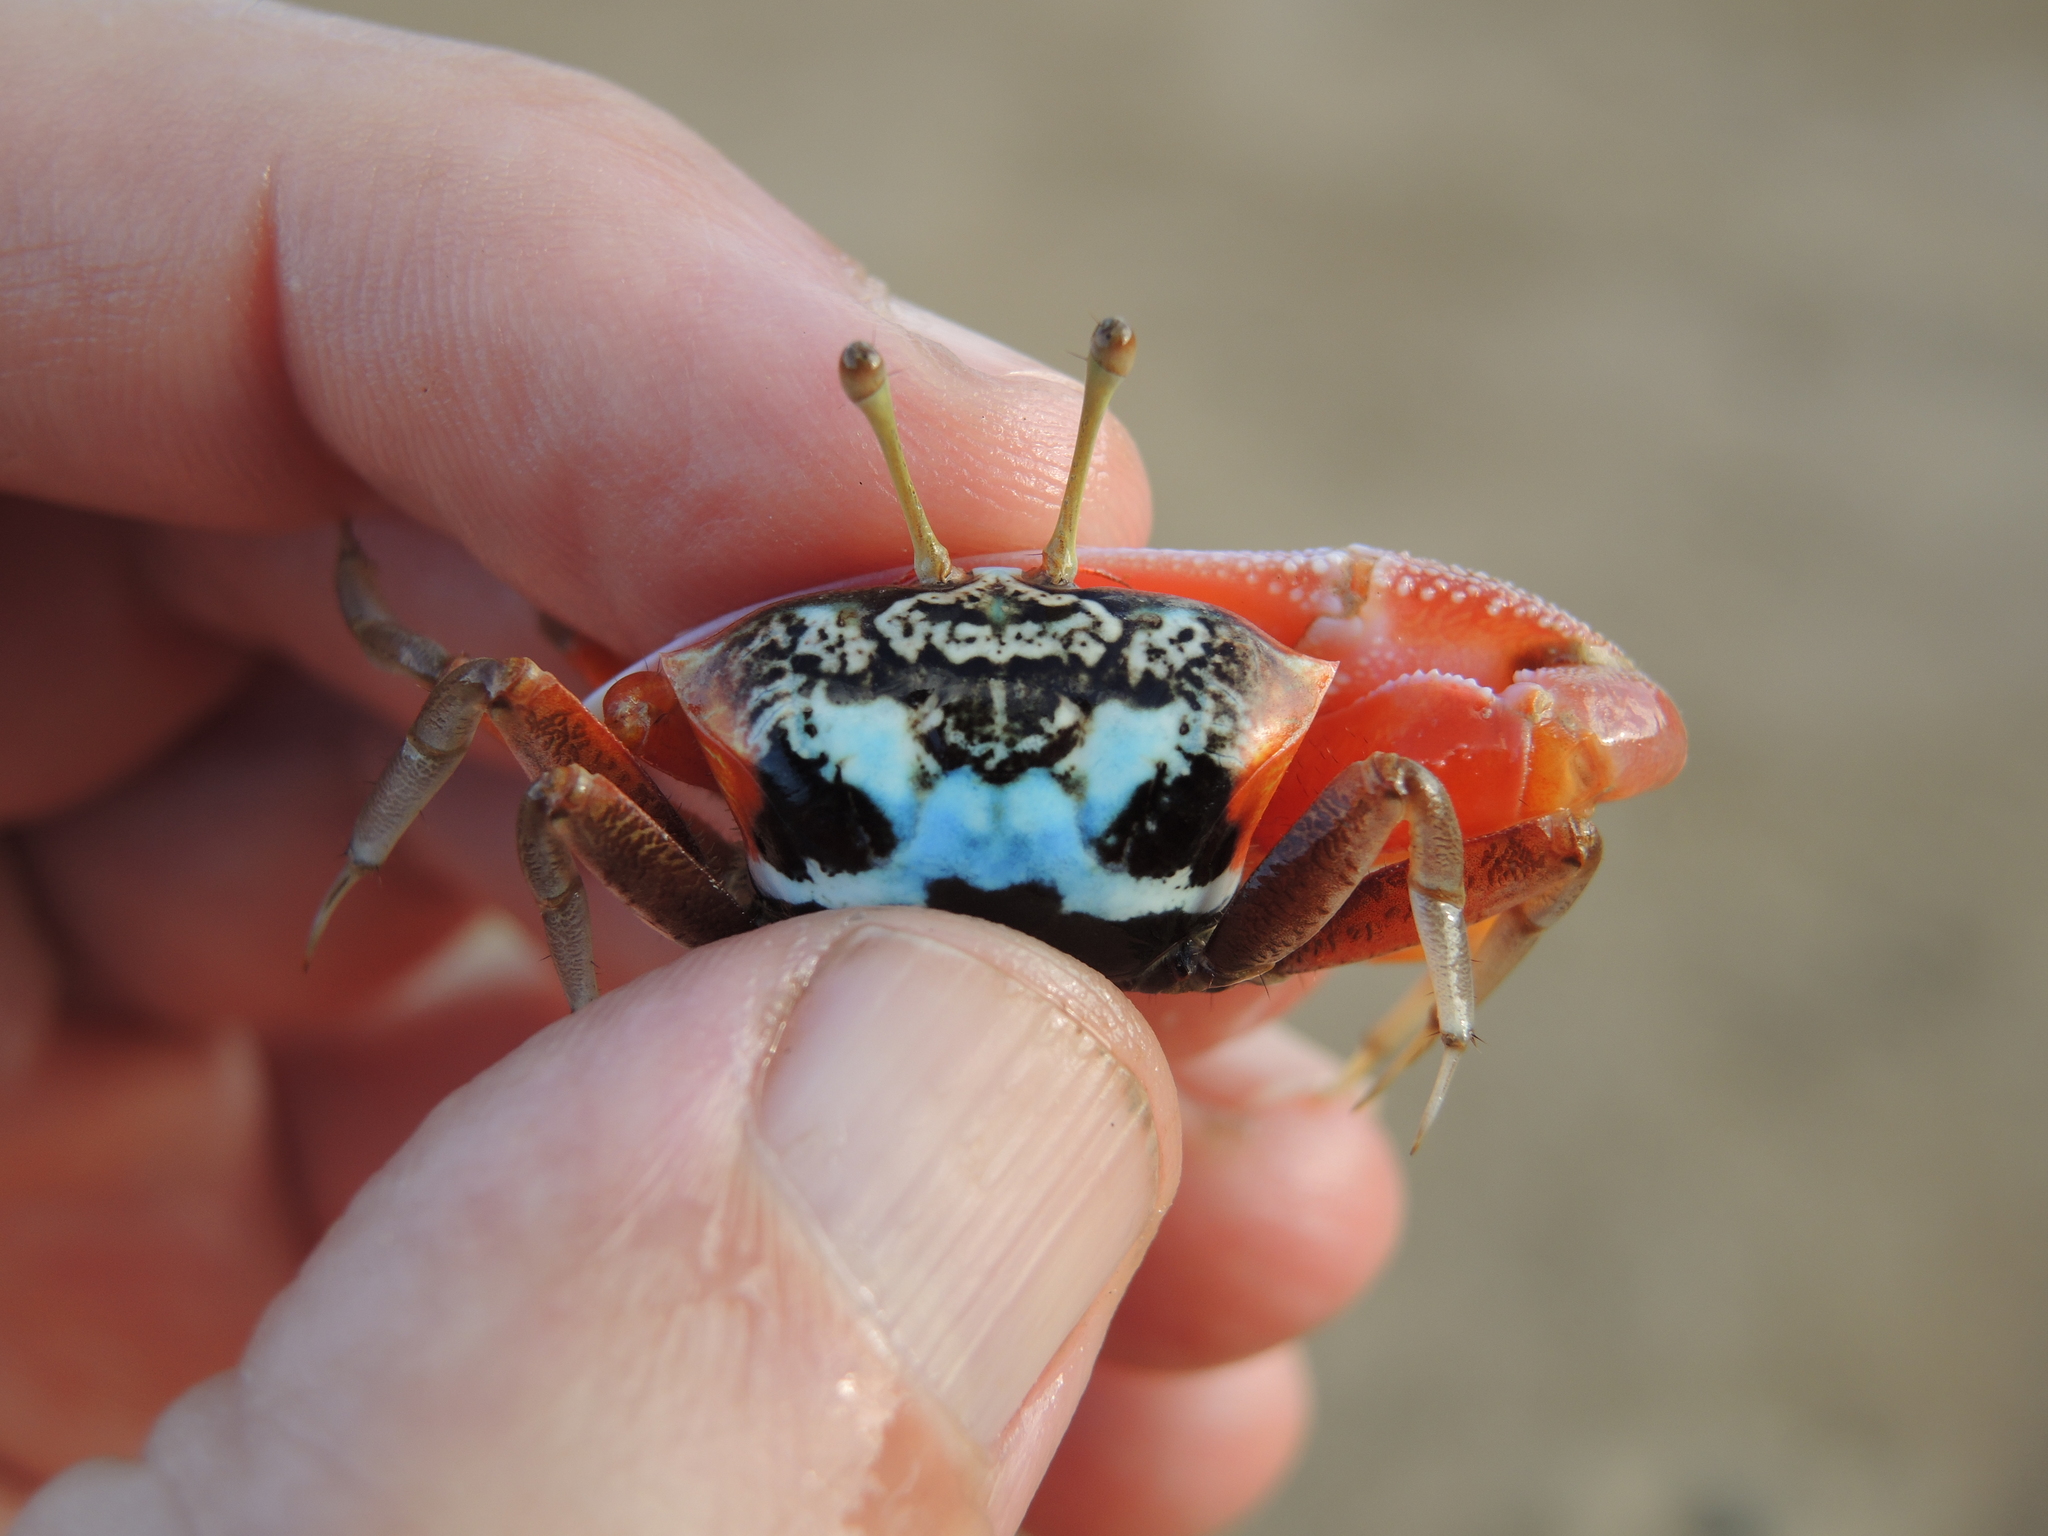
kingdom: Animalia
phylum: Arthropoda
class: Malacostraca
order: Decapoda
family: Ocypodidae
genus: Tubuca
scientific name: Tubuca elegans
